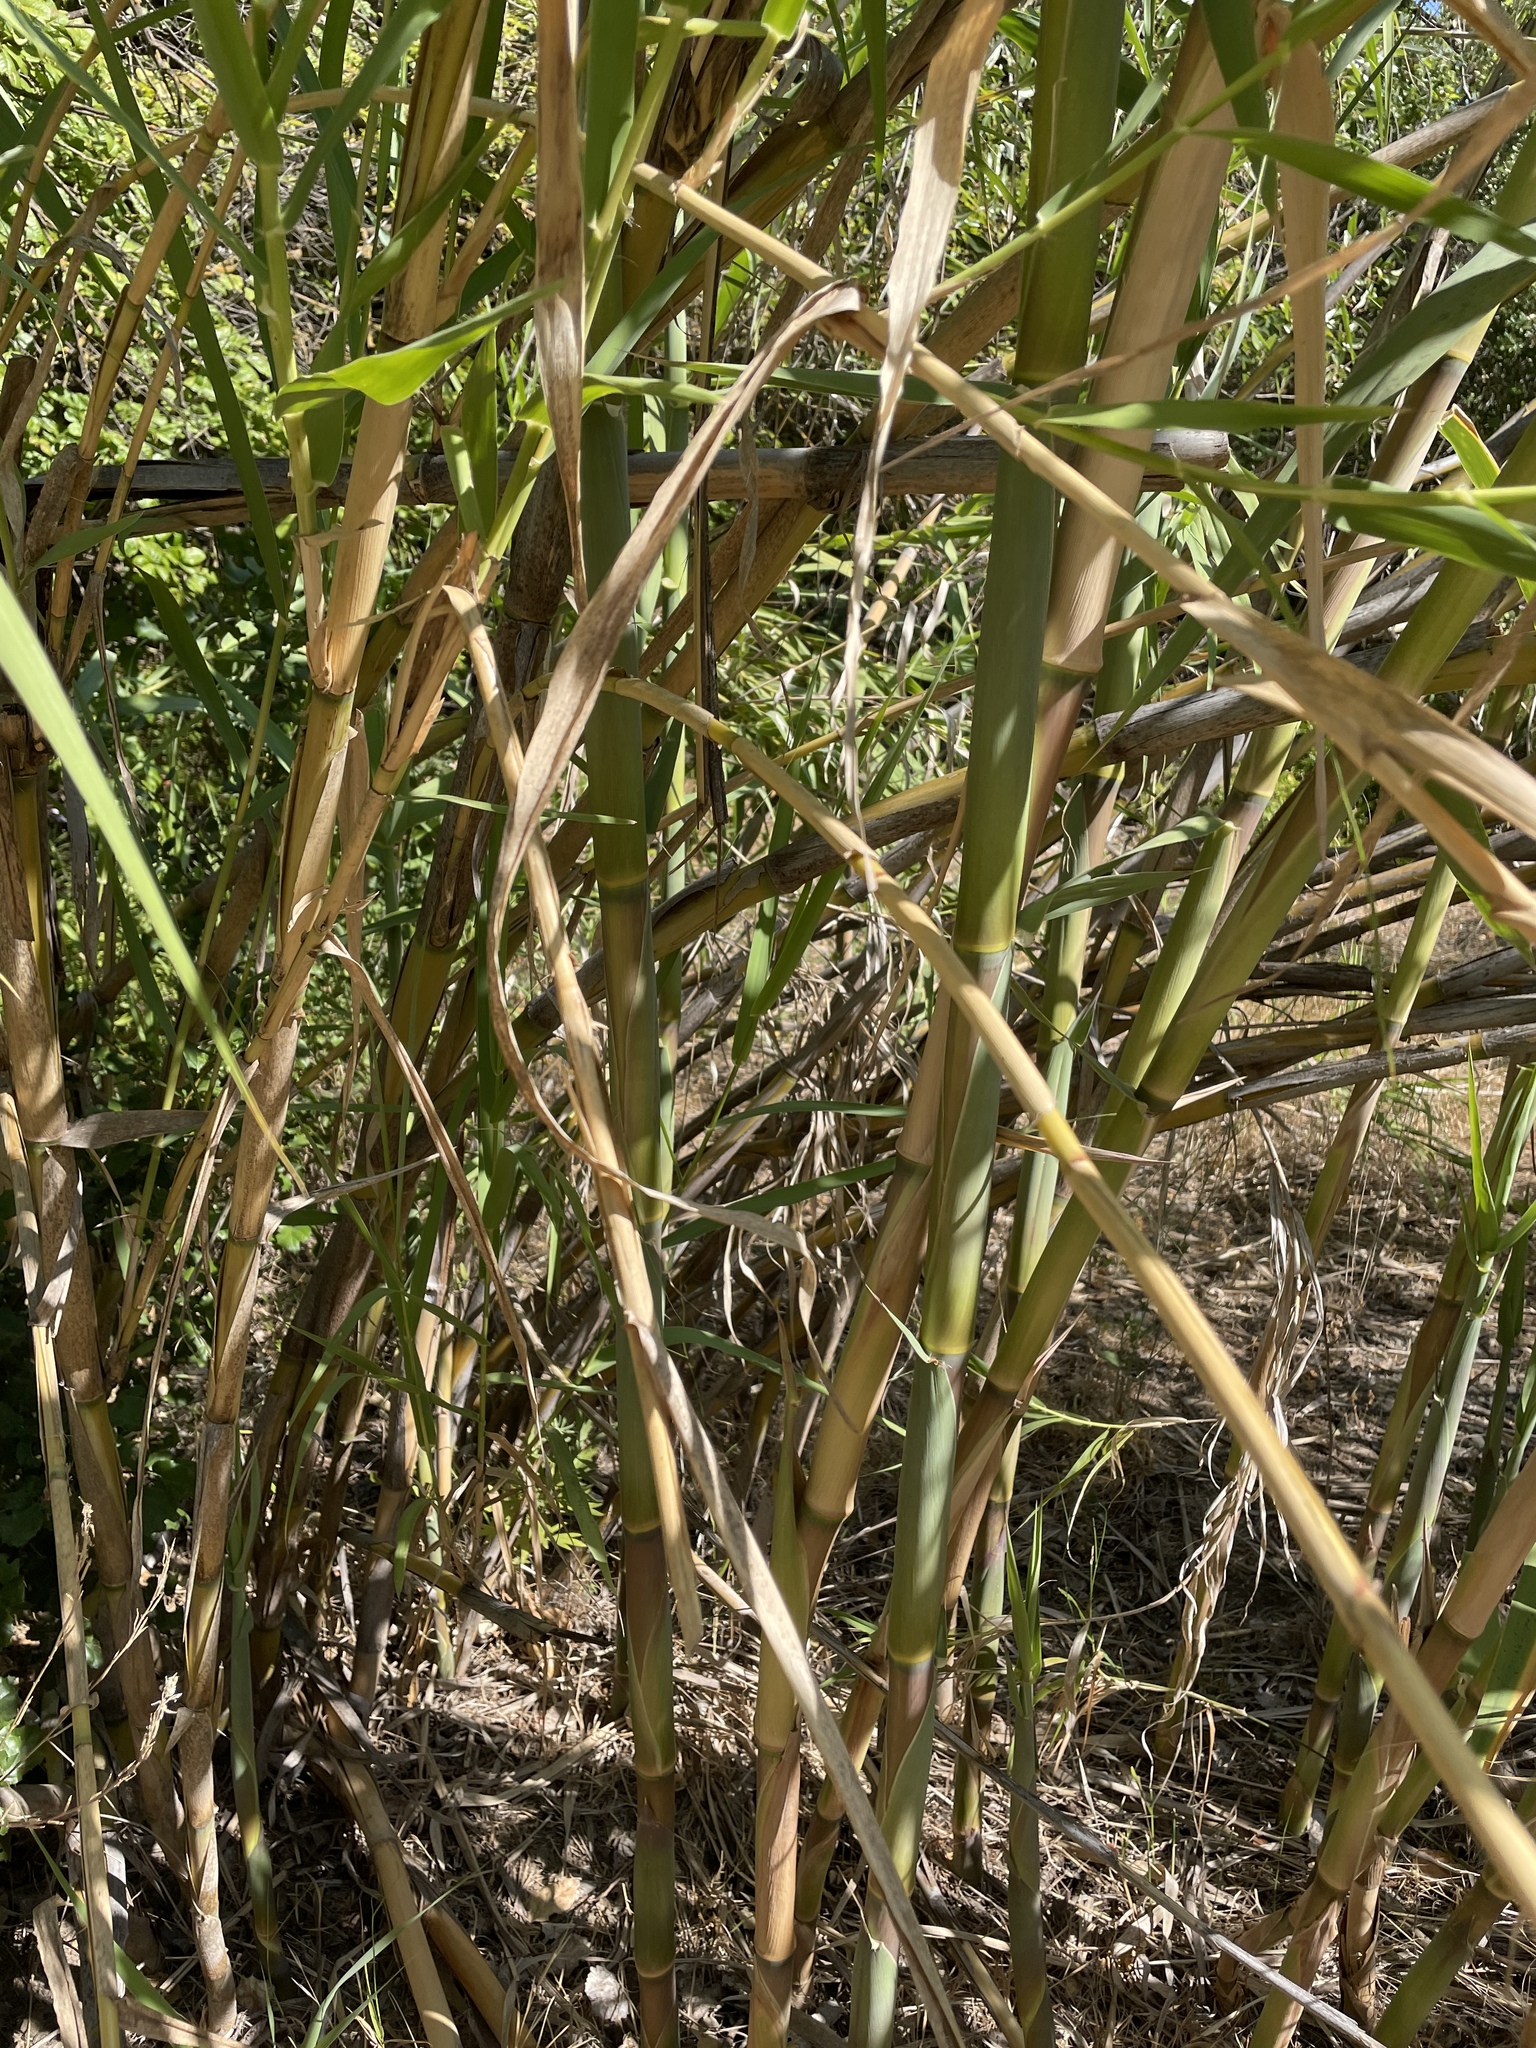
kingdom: Plantae
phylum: Tracheophyta
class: Liliopsida
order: Poales
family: Poaceae
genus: Arundo
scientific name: Arundo donax
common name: Giant reed
